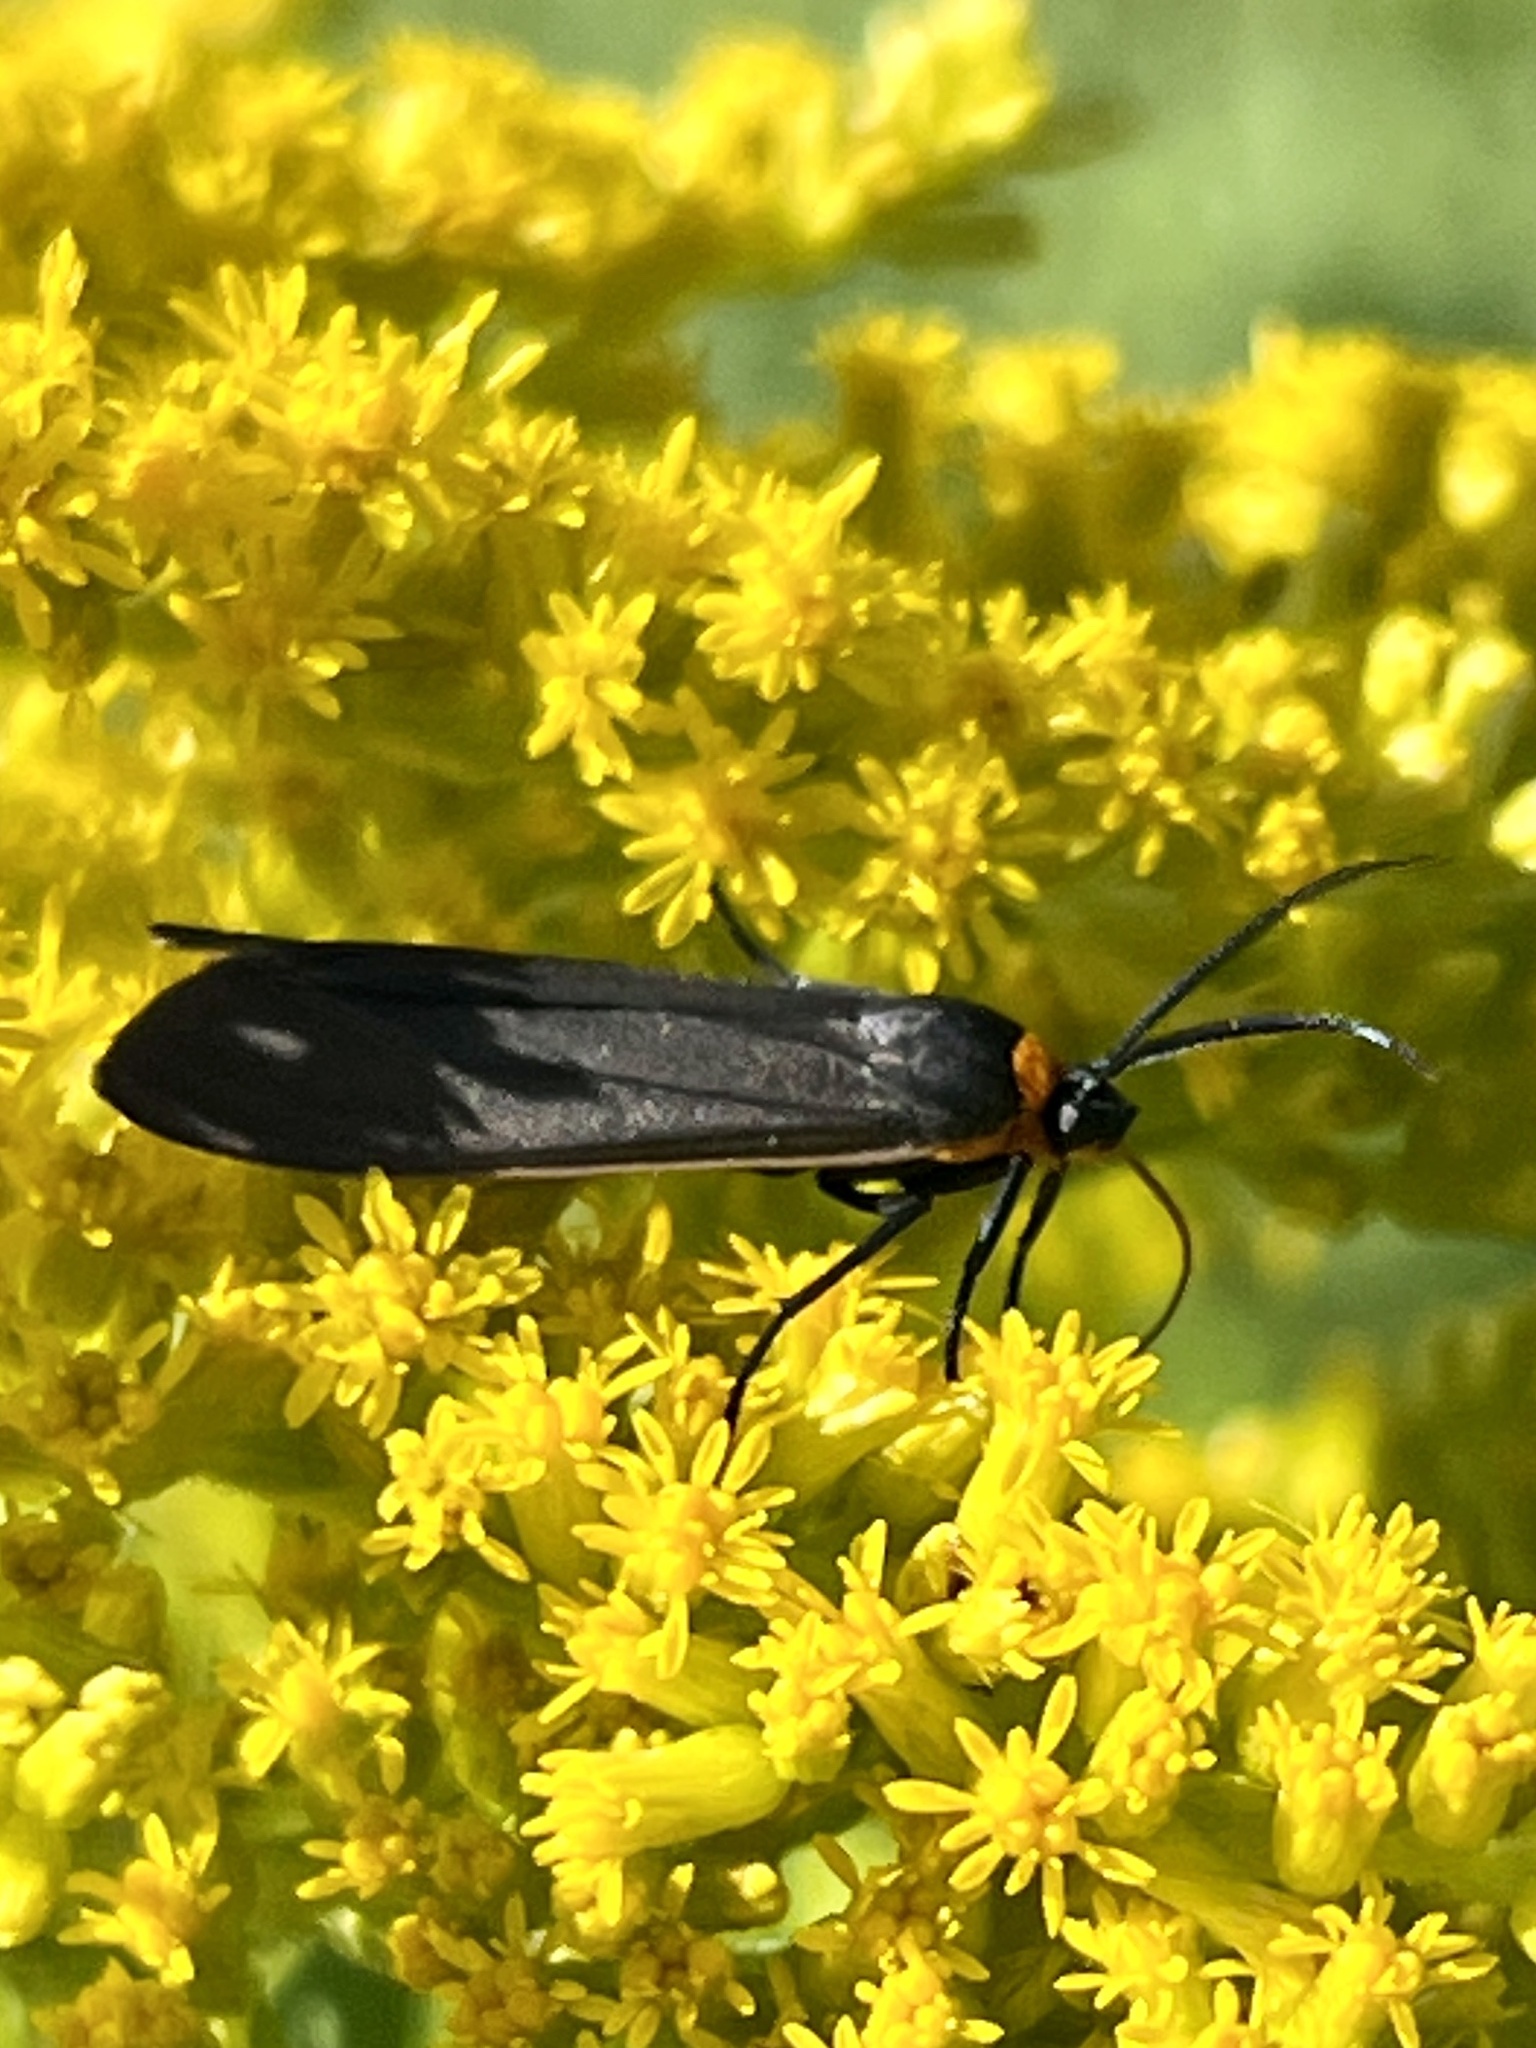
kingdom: Animalia
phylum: Arthropoda
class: Insecta
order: Lepidoptera
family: Erebidae
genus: Cisseps
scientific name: Cisseps fulvicollis
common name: Yellow-collared scape moth
